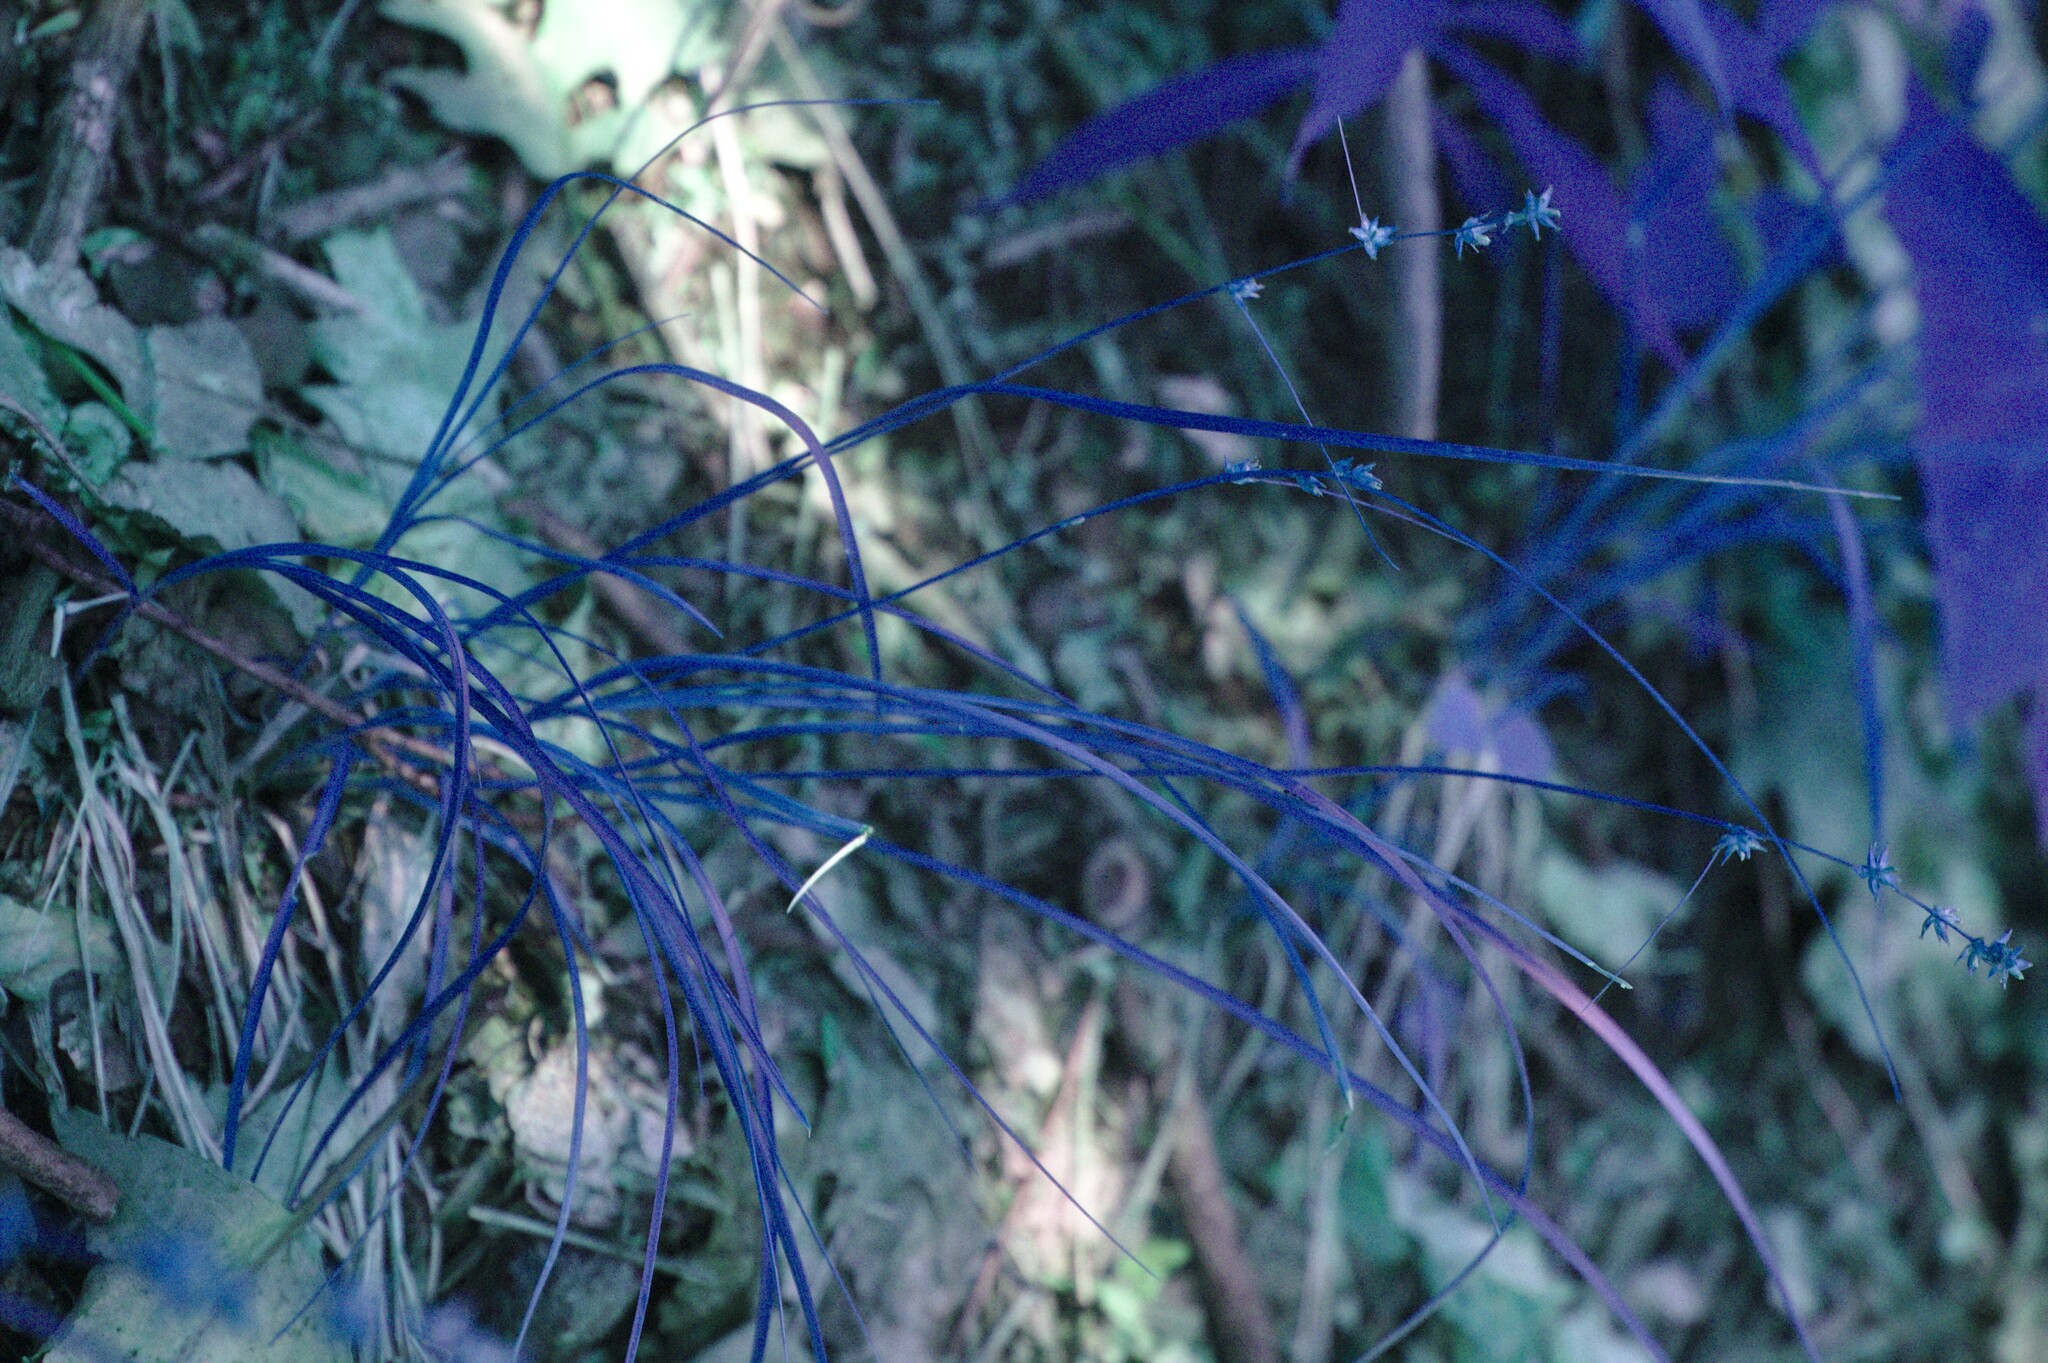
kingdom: Plantae
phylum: Tracheophyta
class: Liliopsida
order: Poales
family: Cyperaceae
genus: Carex
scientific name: Carex rosea
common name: Curly-styled wood sedge
